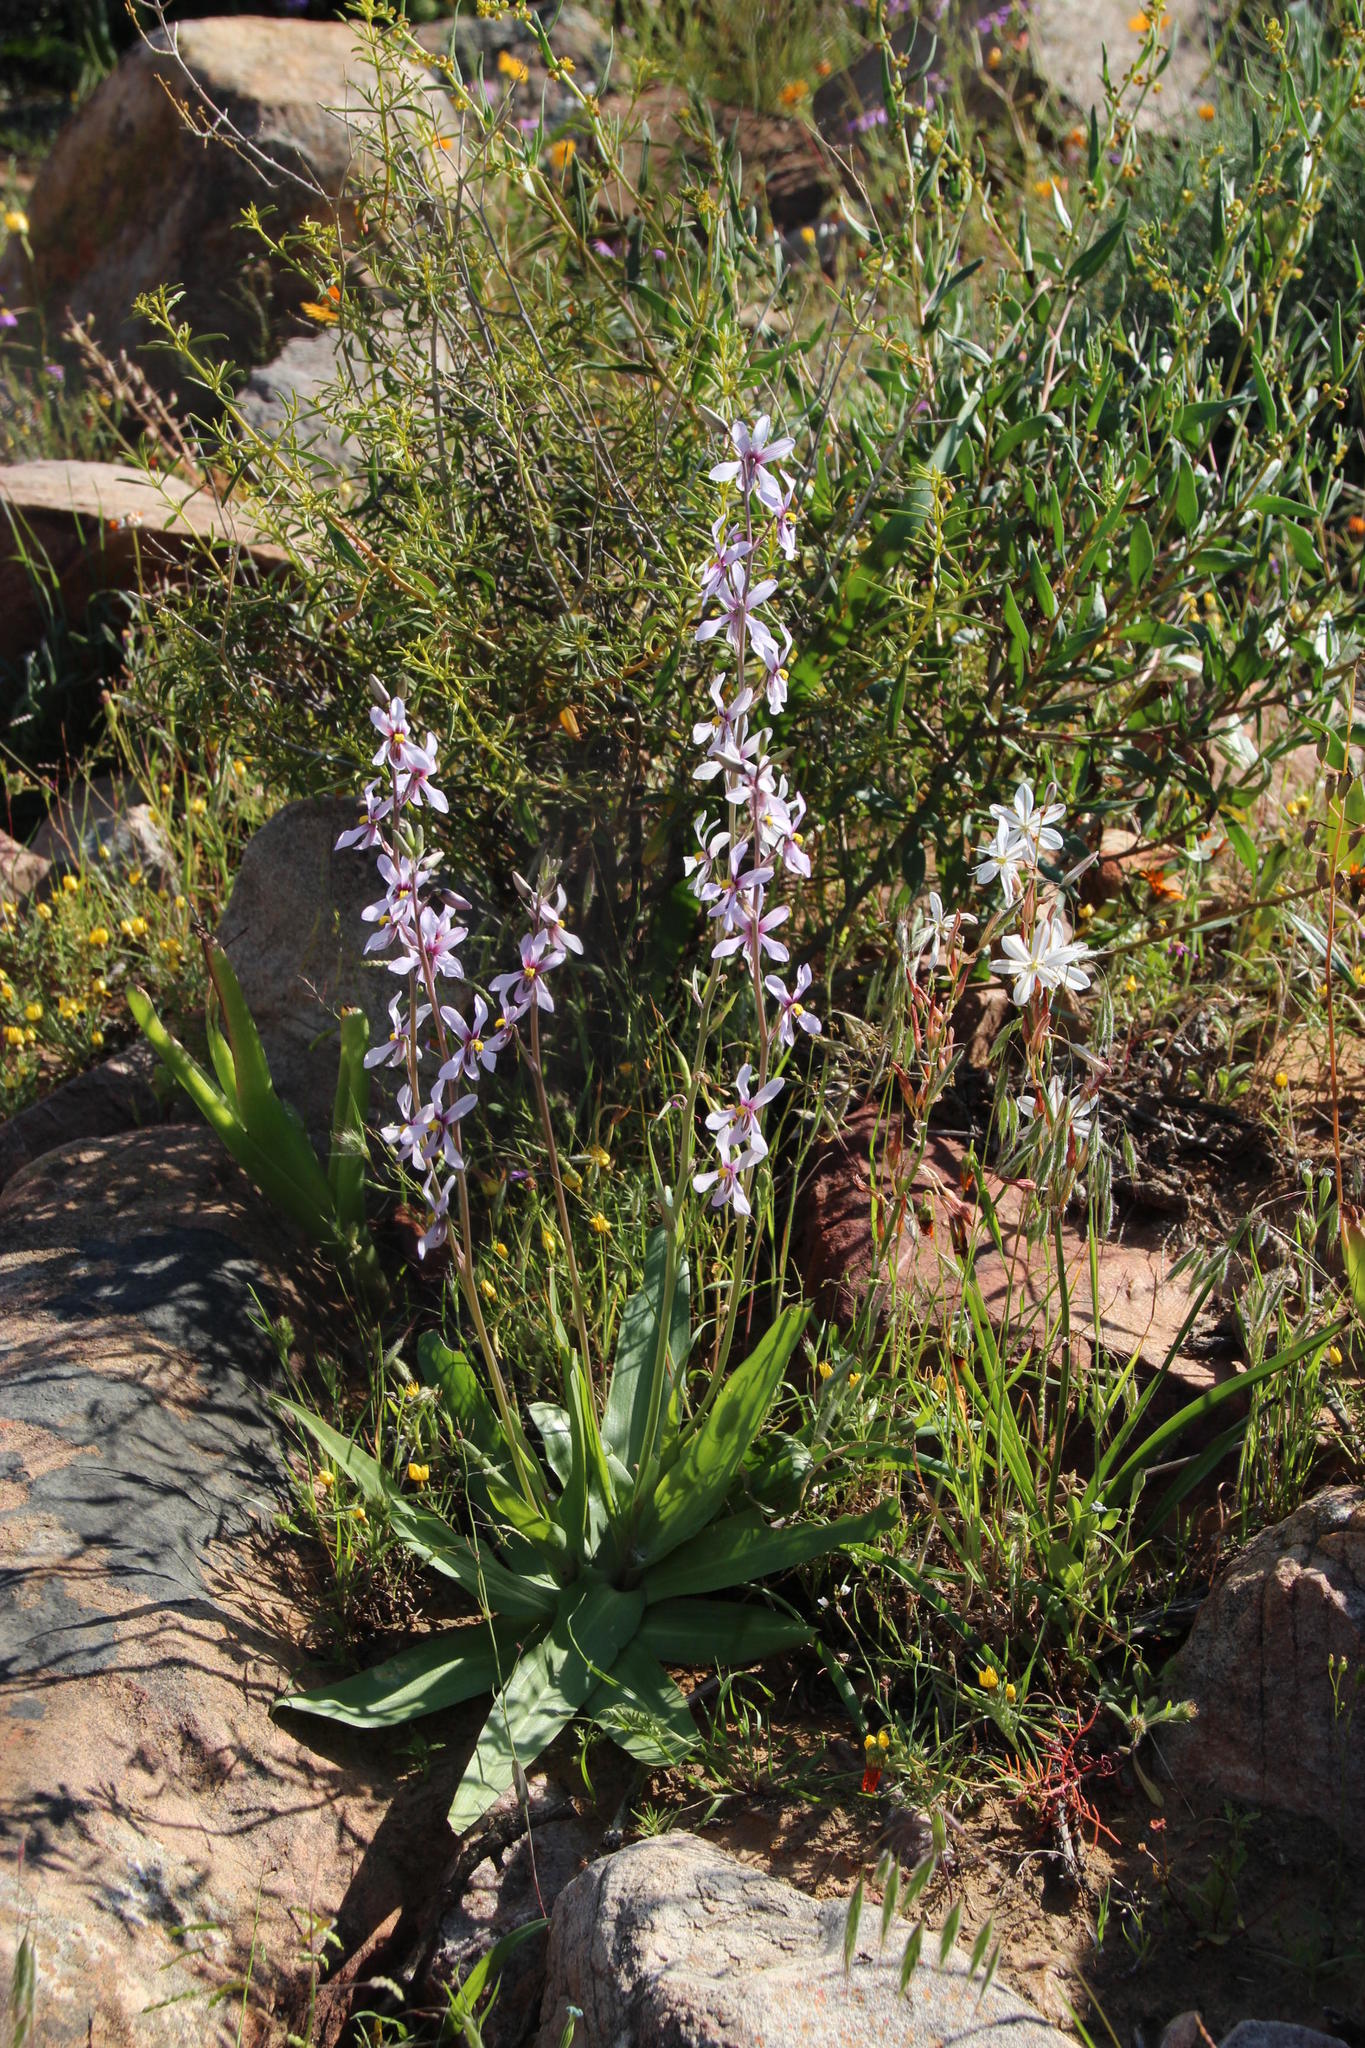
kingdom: Plantae
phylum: Tracheophyta
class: Liliopsida
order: Asparagales
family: Tecophilaeaceae
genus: Cyanella
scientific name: Cyanella orchidiformis
